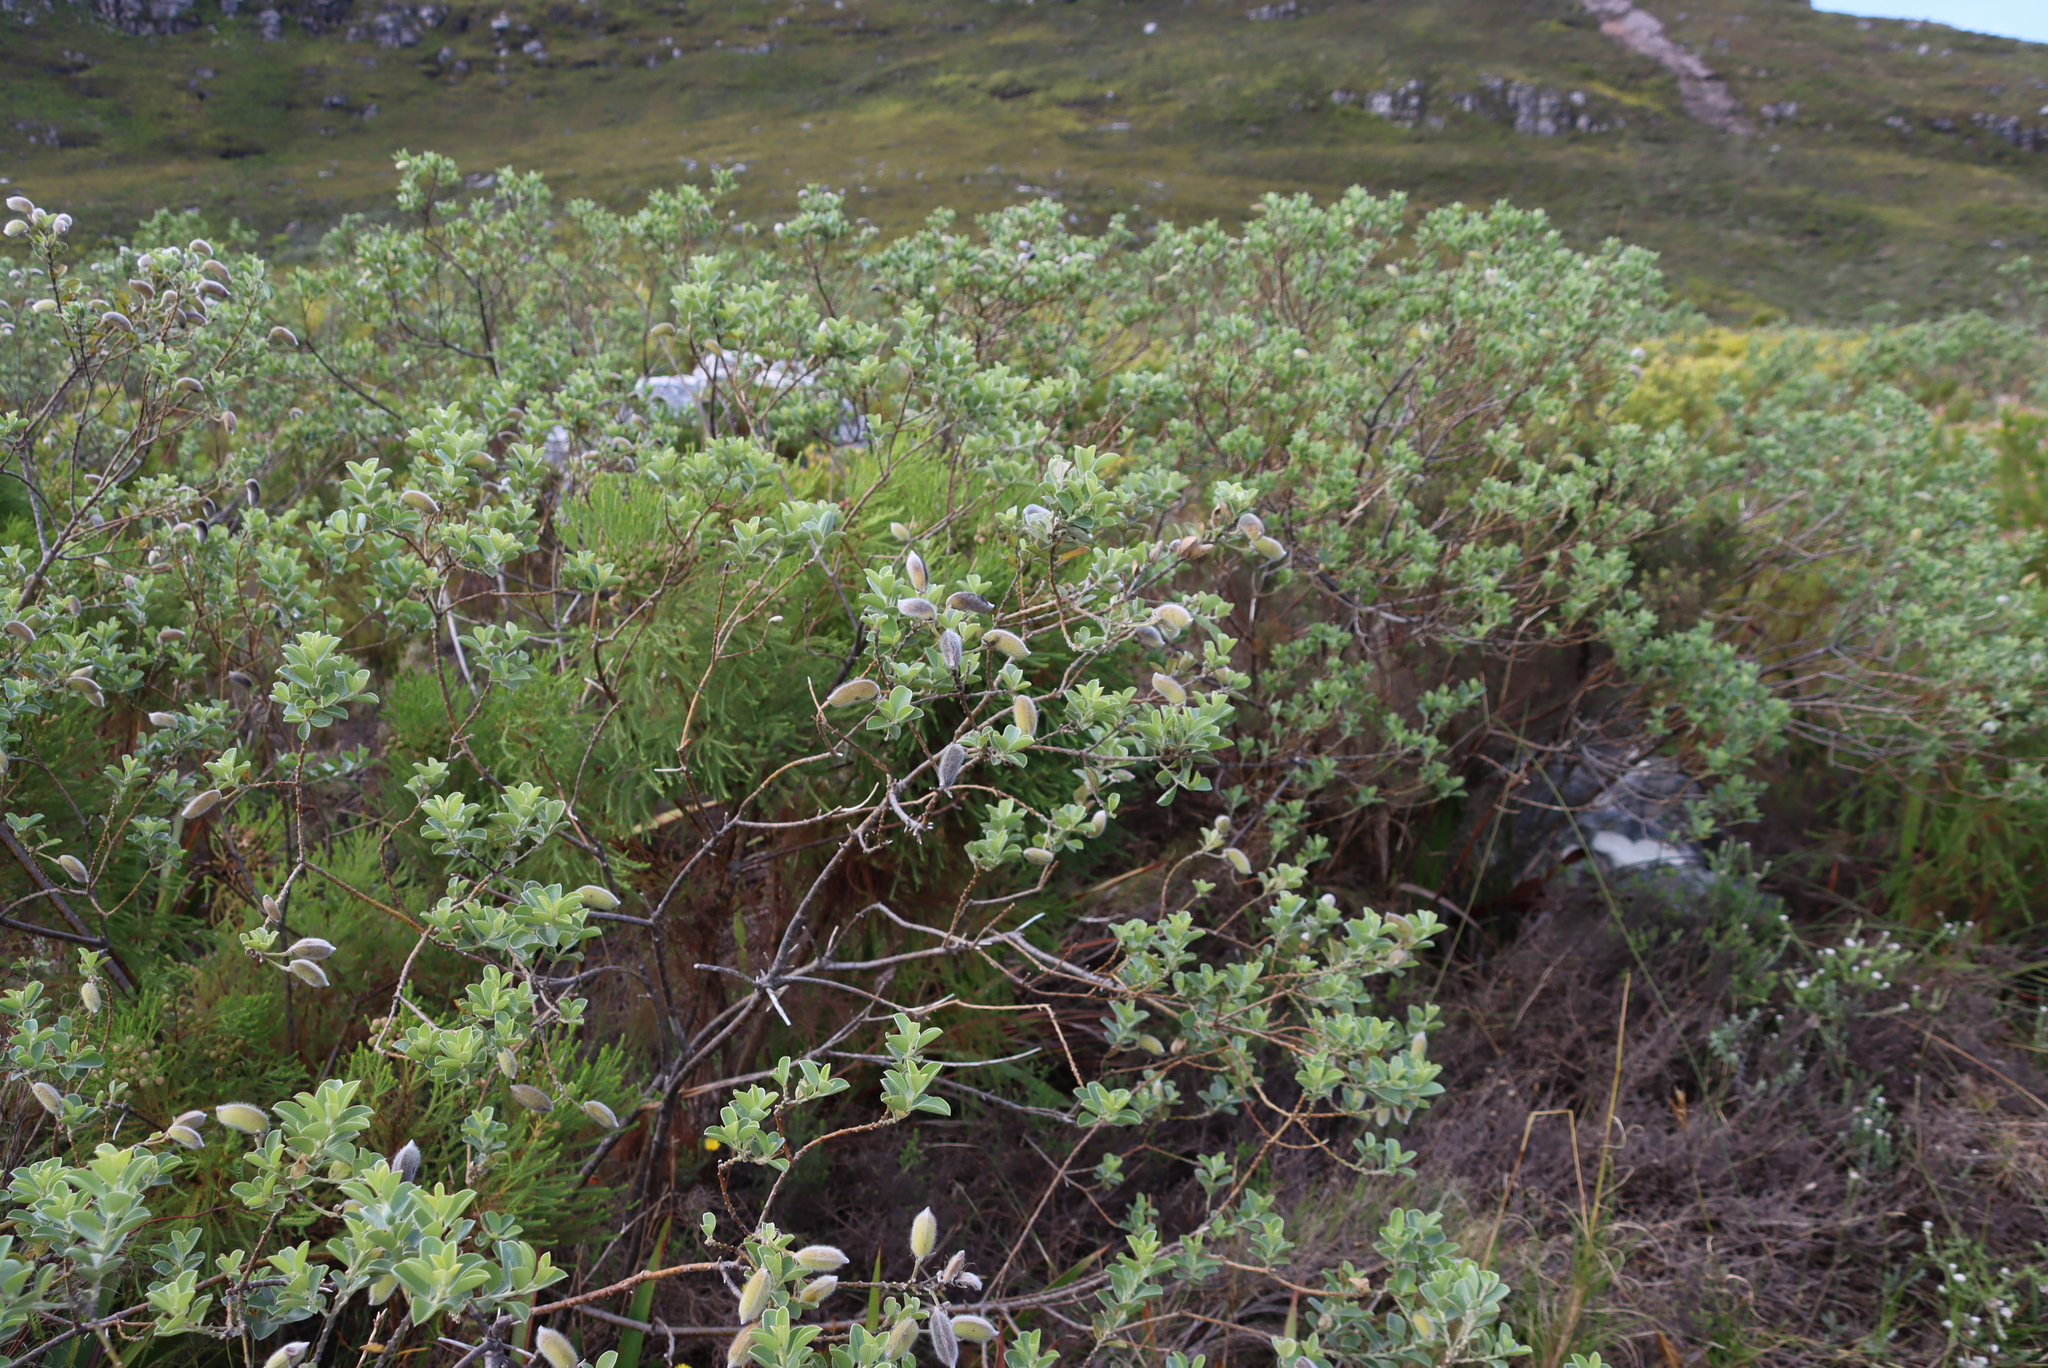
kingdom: Plantae
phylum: Tracheophyta
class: Magnoliopsida
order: Fabales
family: Fabaceae
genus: Podalyria
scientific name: Podalyria calyptrata
